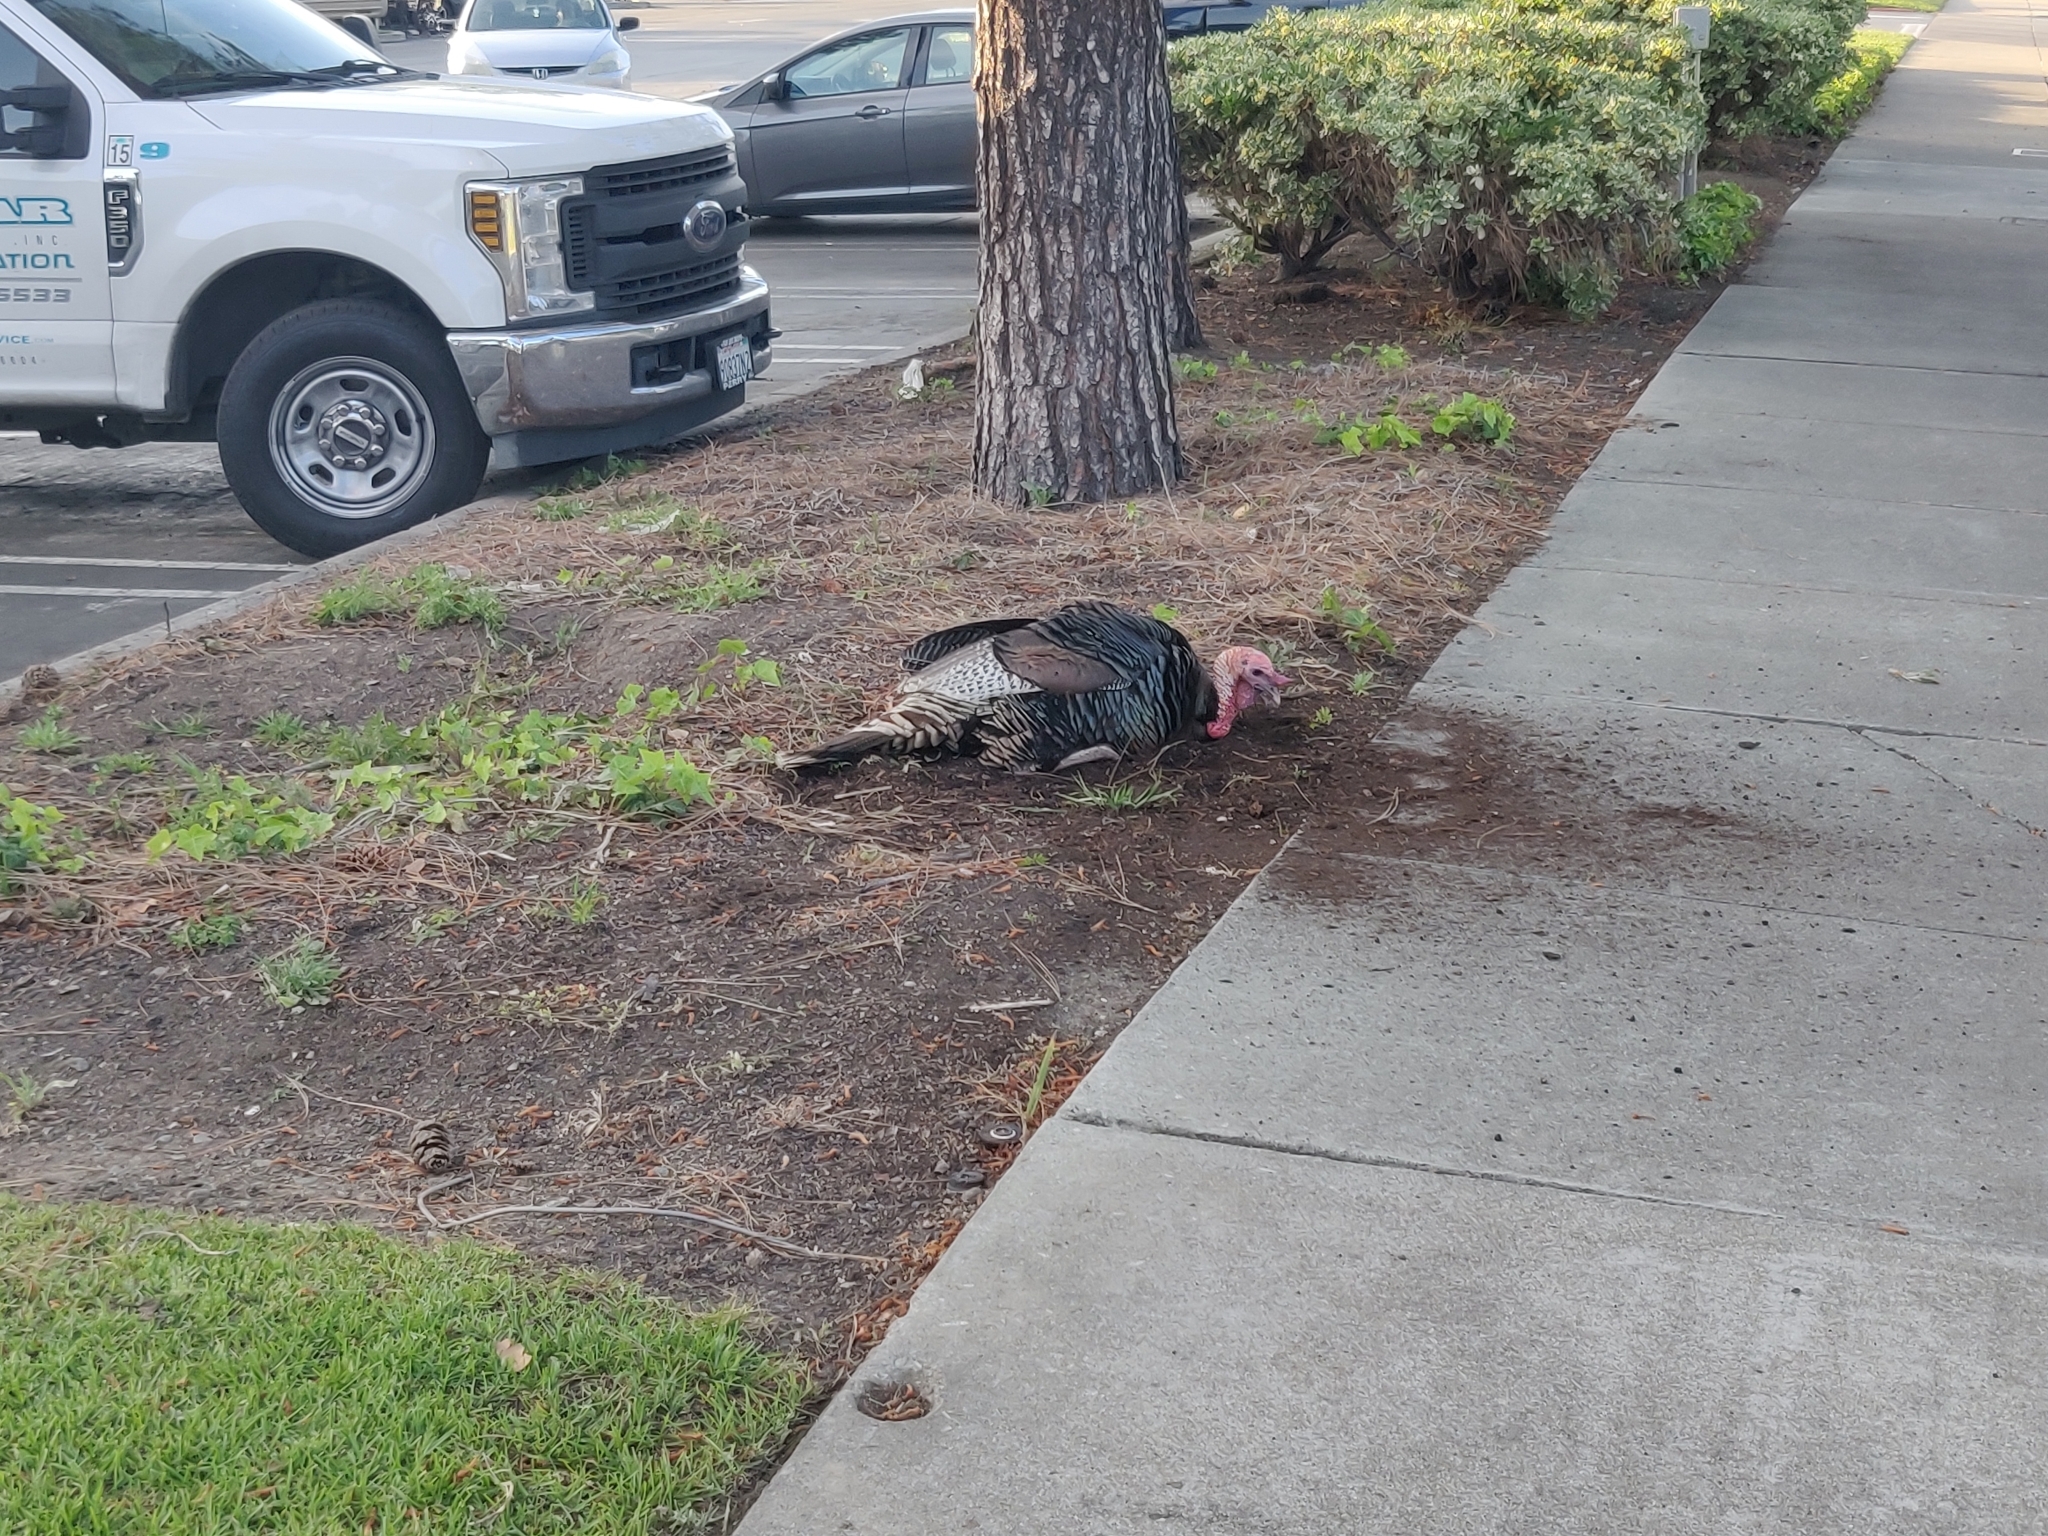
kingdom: Animalia
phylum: Chordata
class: Aves
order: Galliformes
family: Phasianidae
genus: Meleagris
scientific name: Meleagris gallopavo
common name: Wild turkey
